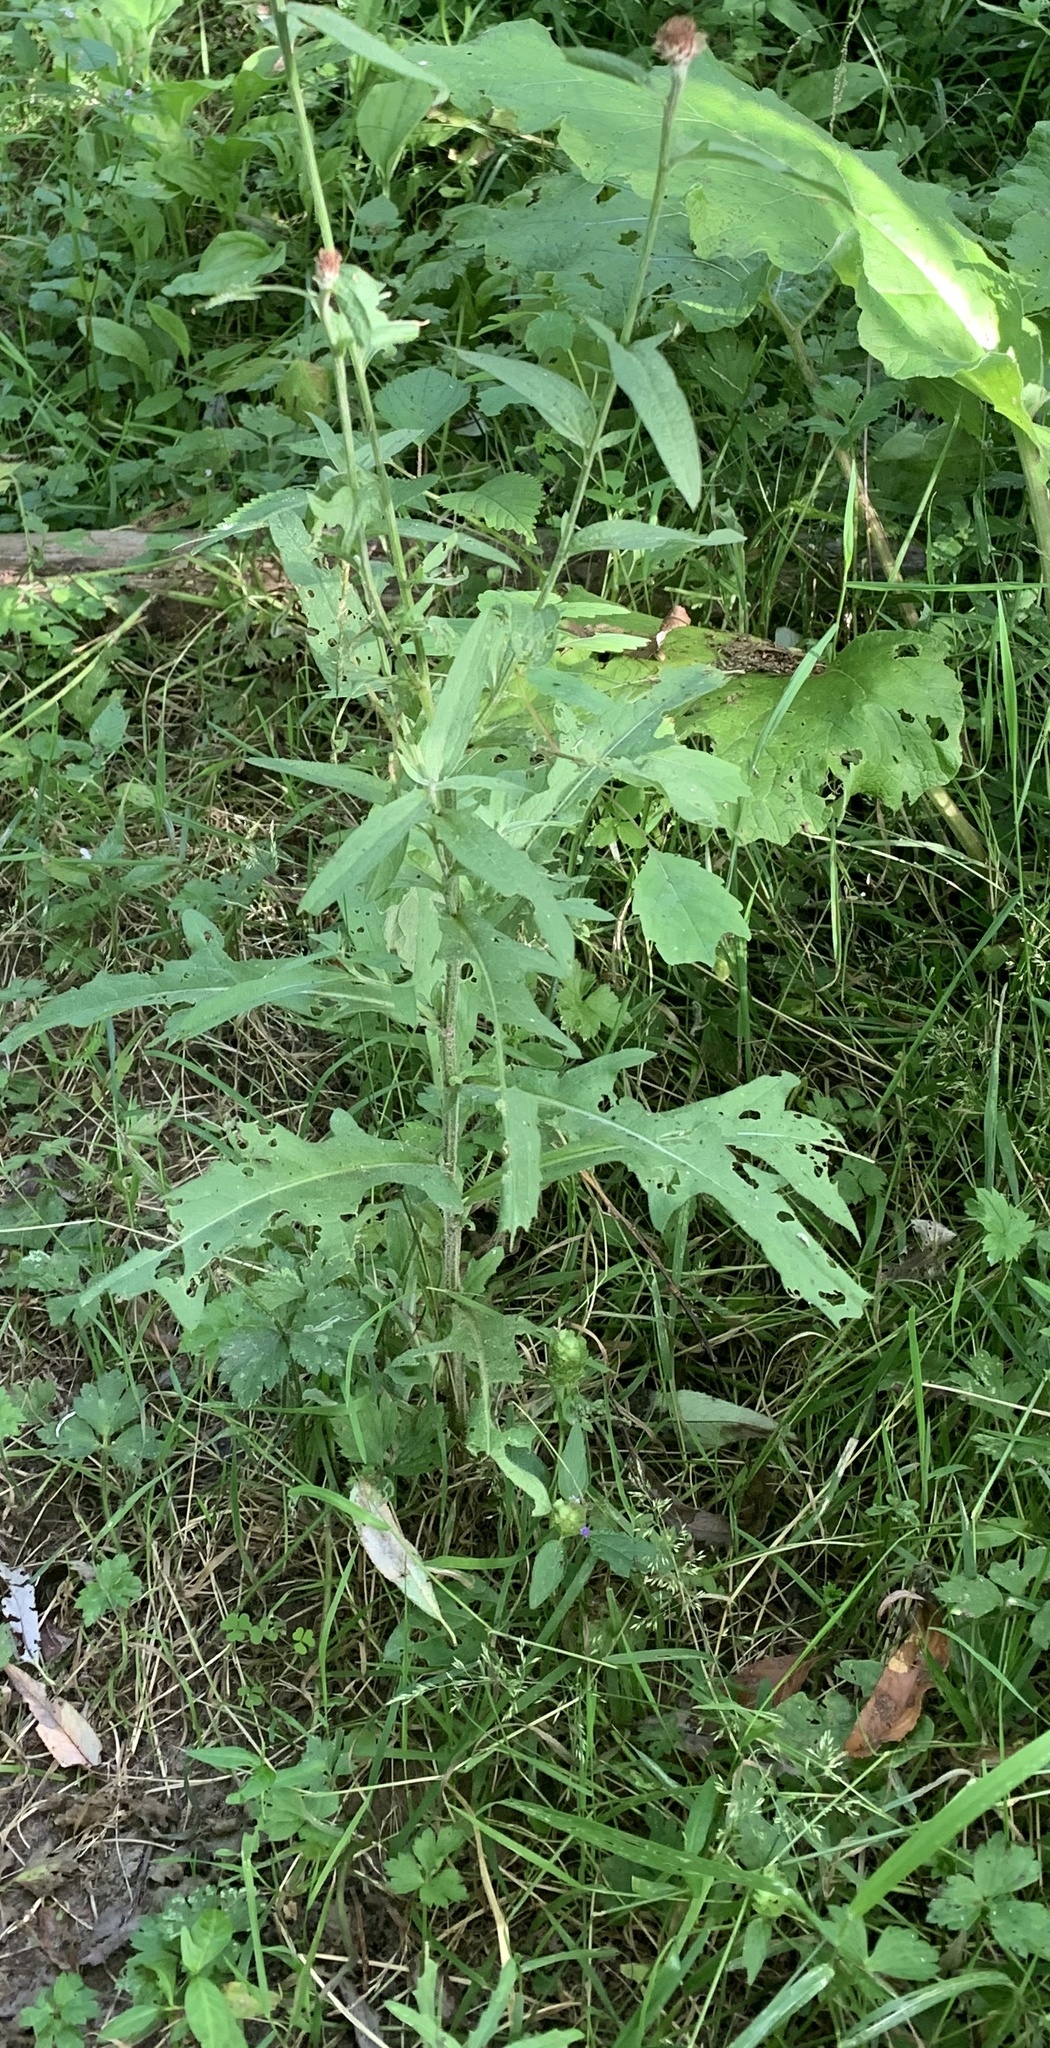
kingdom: Plantae
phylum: Tracheophyta
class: Magnoliopsida
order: Asterales
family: Asteraceae
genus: Lactuca
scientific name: Lactuca canadensis
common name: Canada lettuce
